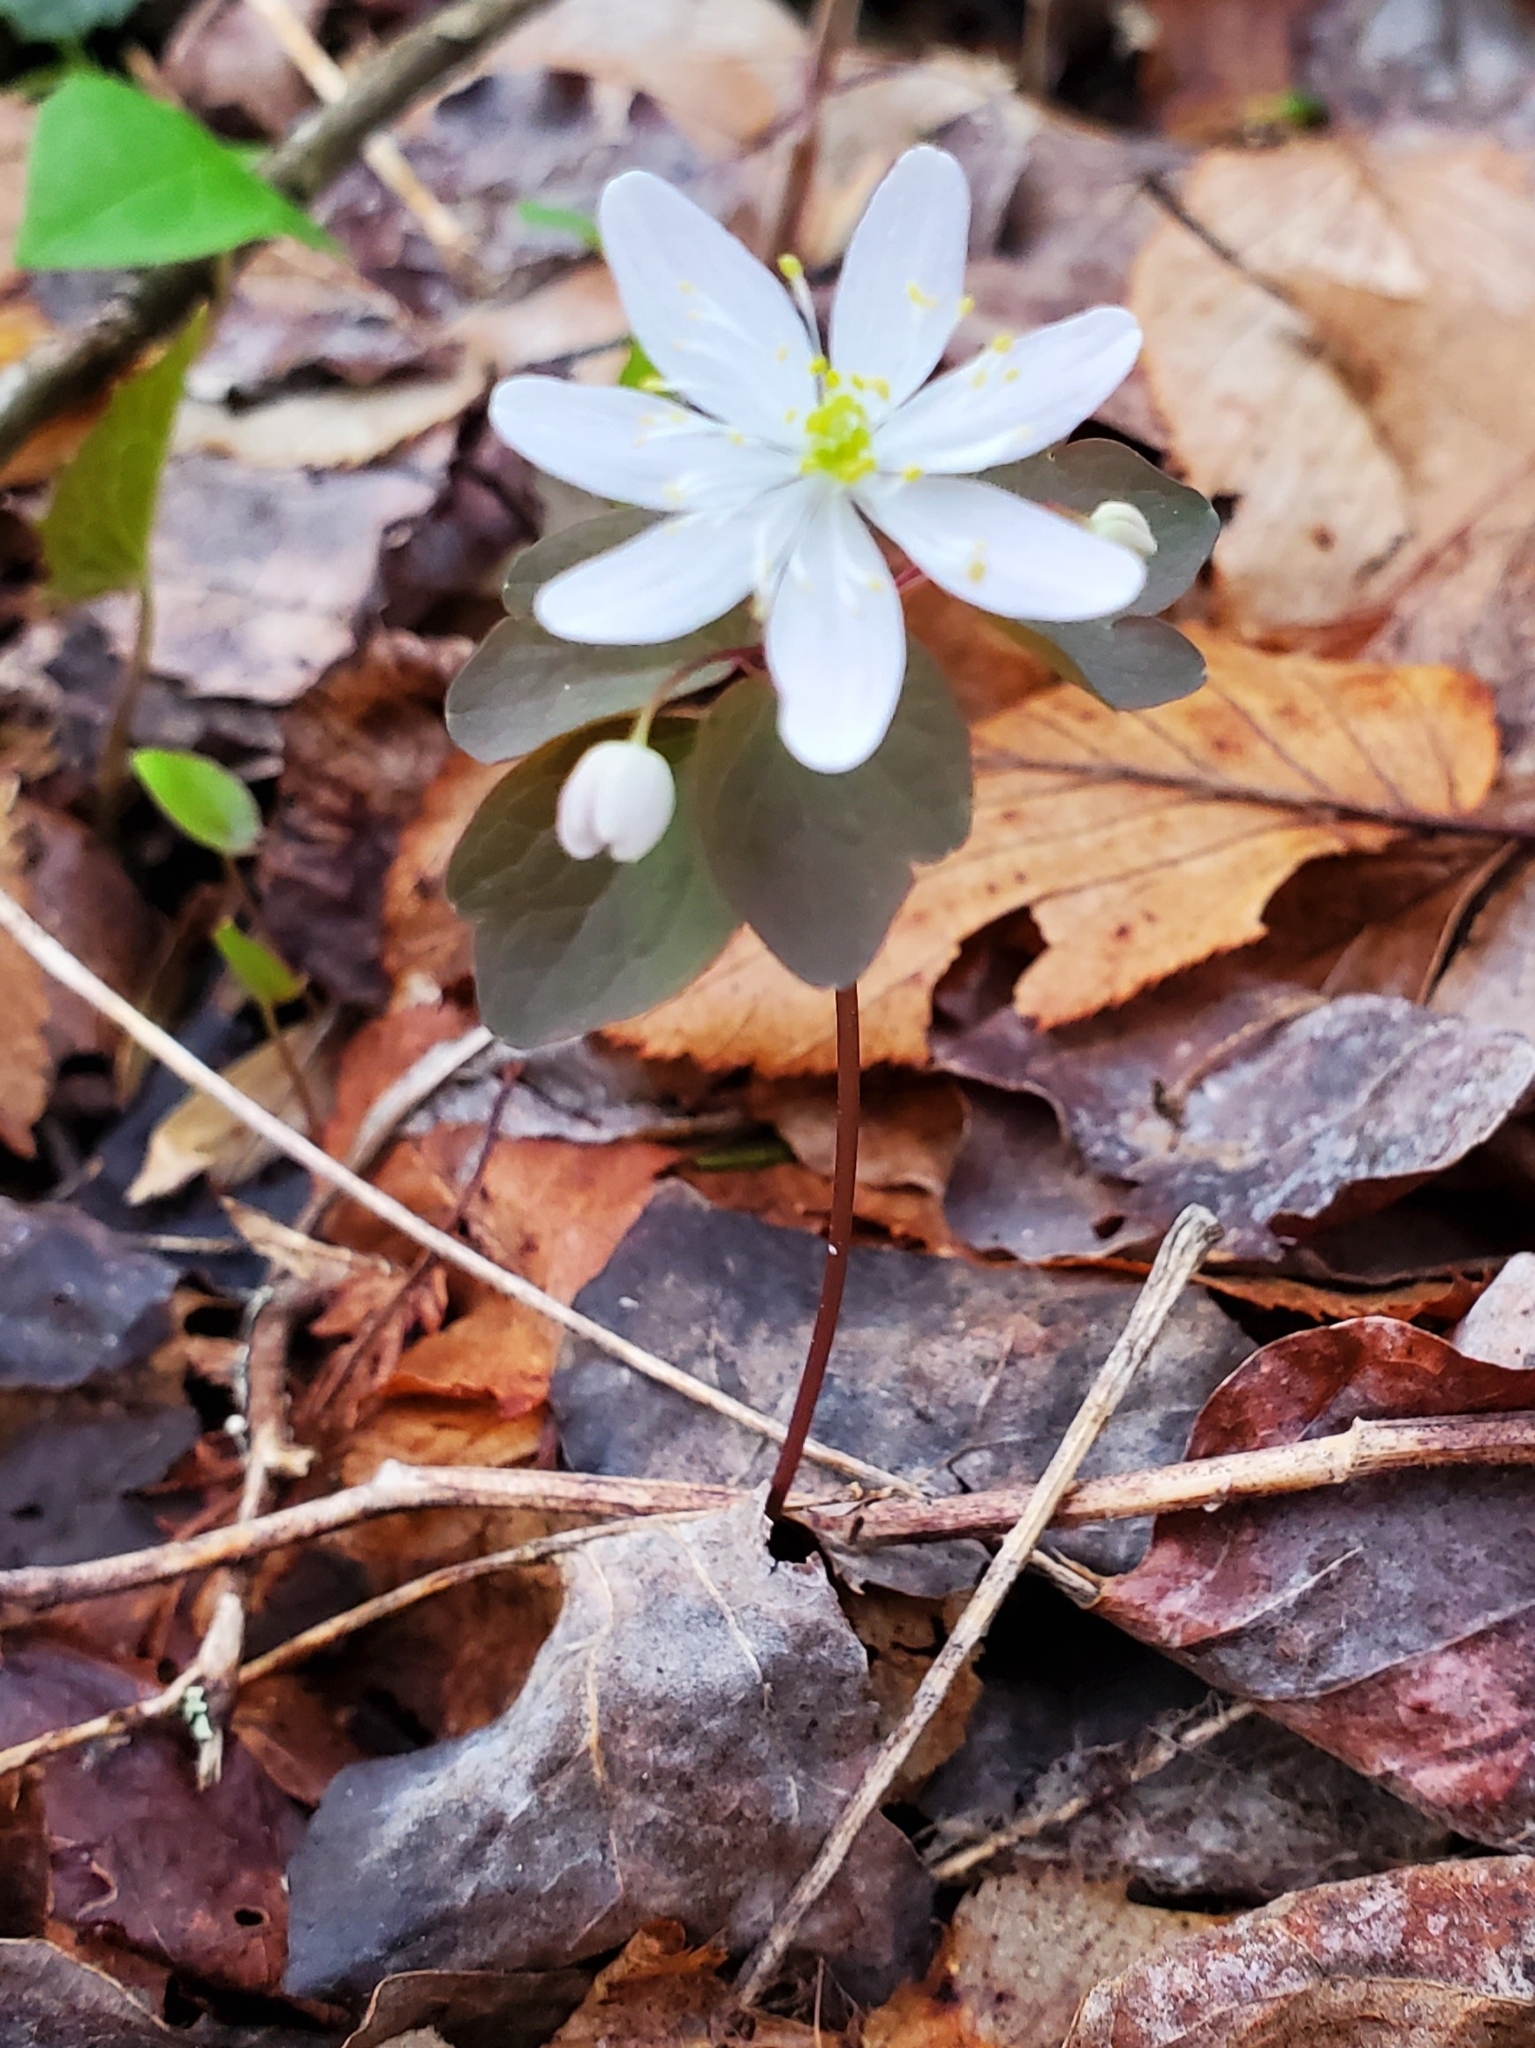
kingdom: Plantae
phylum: Tracheophyta
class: Magnoliopsida
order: Ranunculales
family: Ranunculaceae
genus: Thalictrum
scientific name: Thalictrum thalictroides
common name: Rue-anemone
